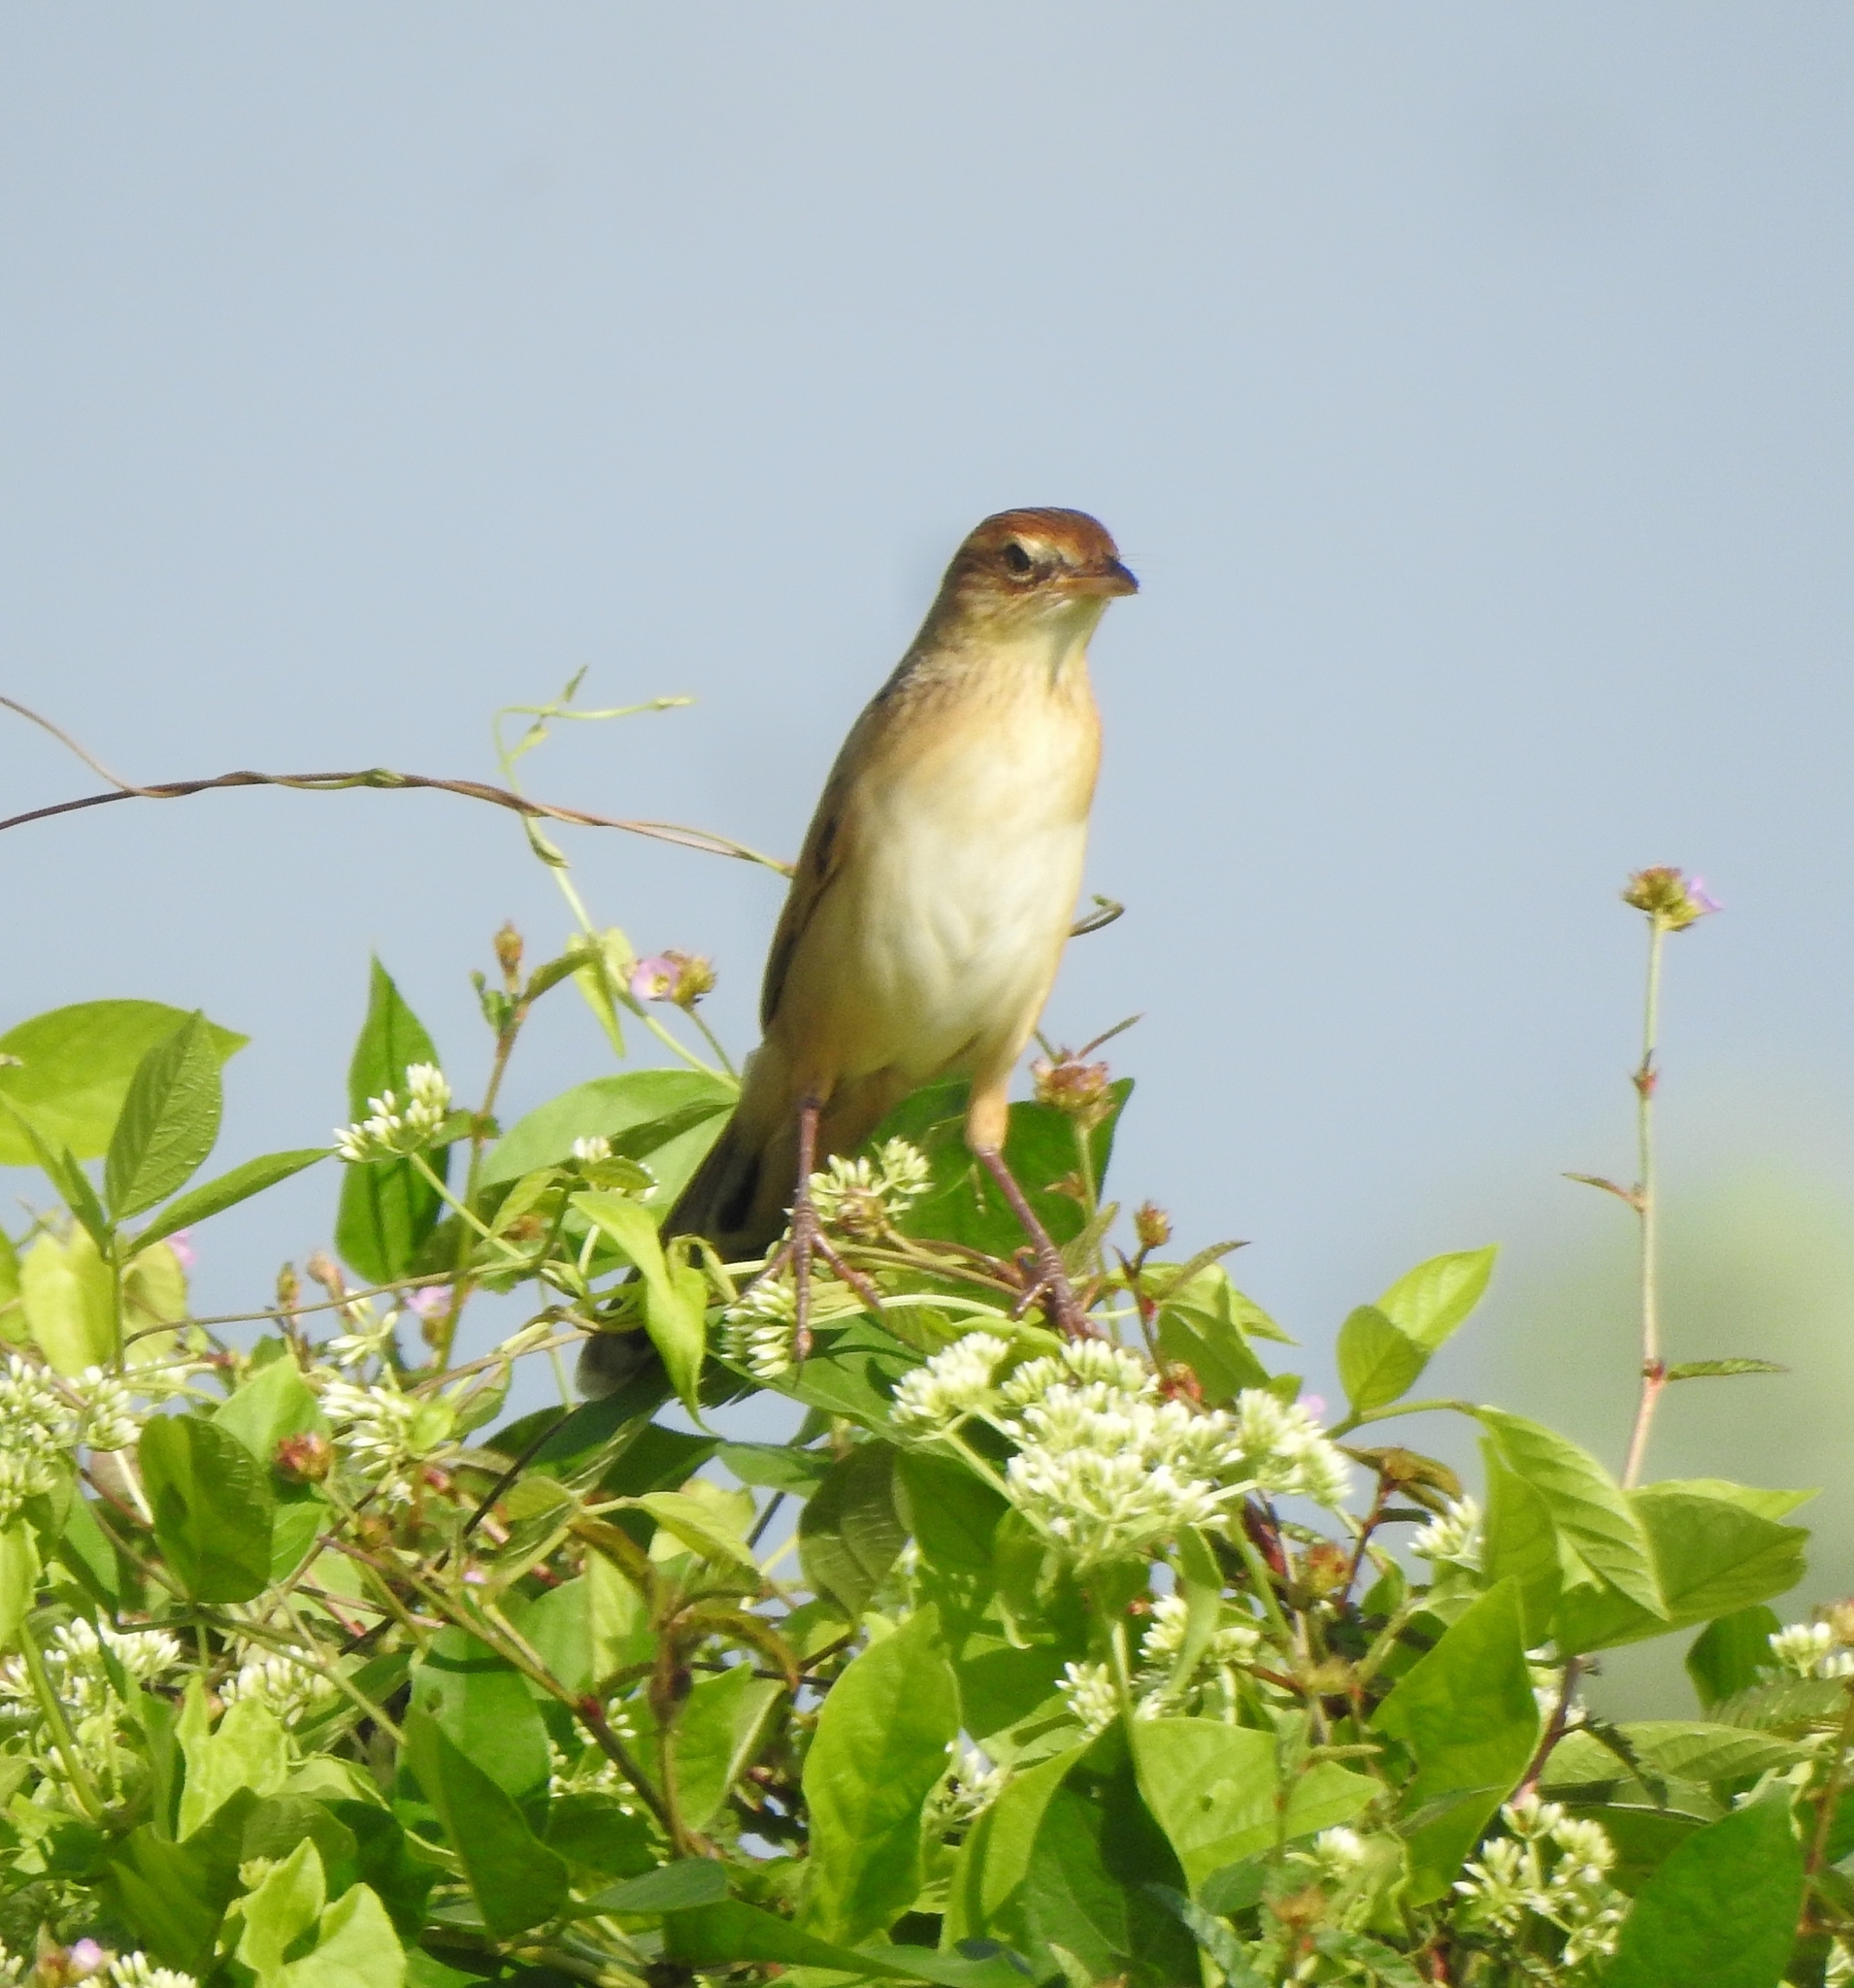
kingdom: Animalia
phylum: Chordata
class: Aves
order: Passeriformes
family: Locustellidae
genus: Chaetornis
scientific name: Chaetornis striata
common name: Bristled grassbird
